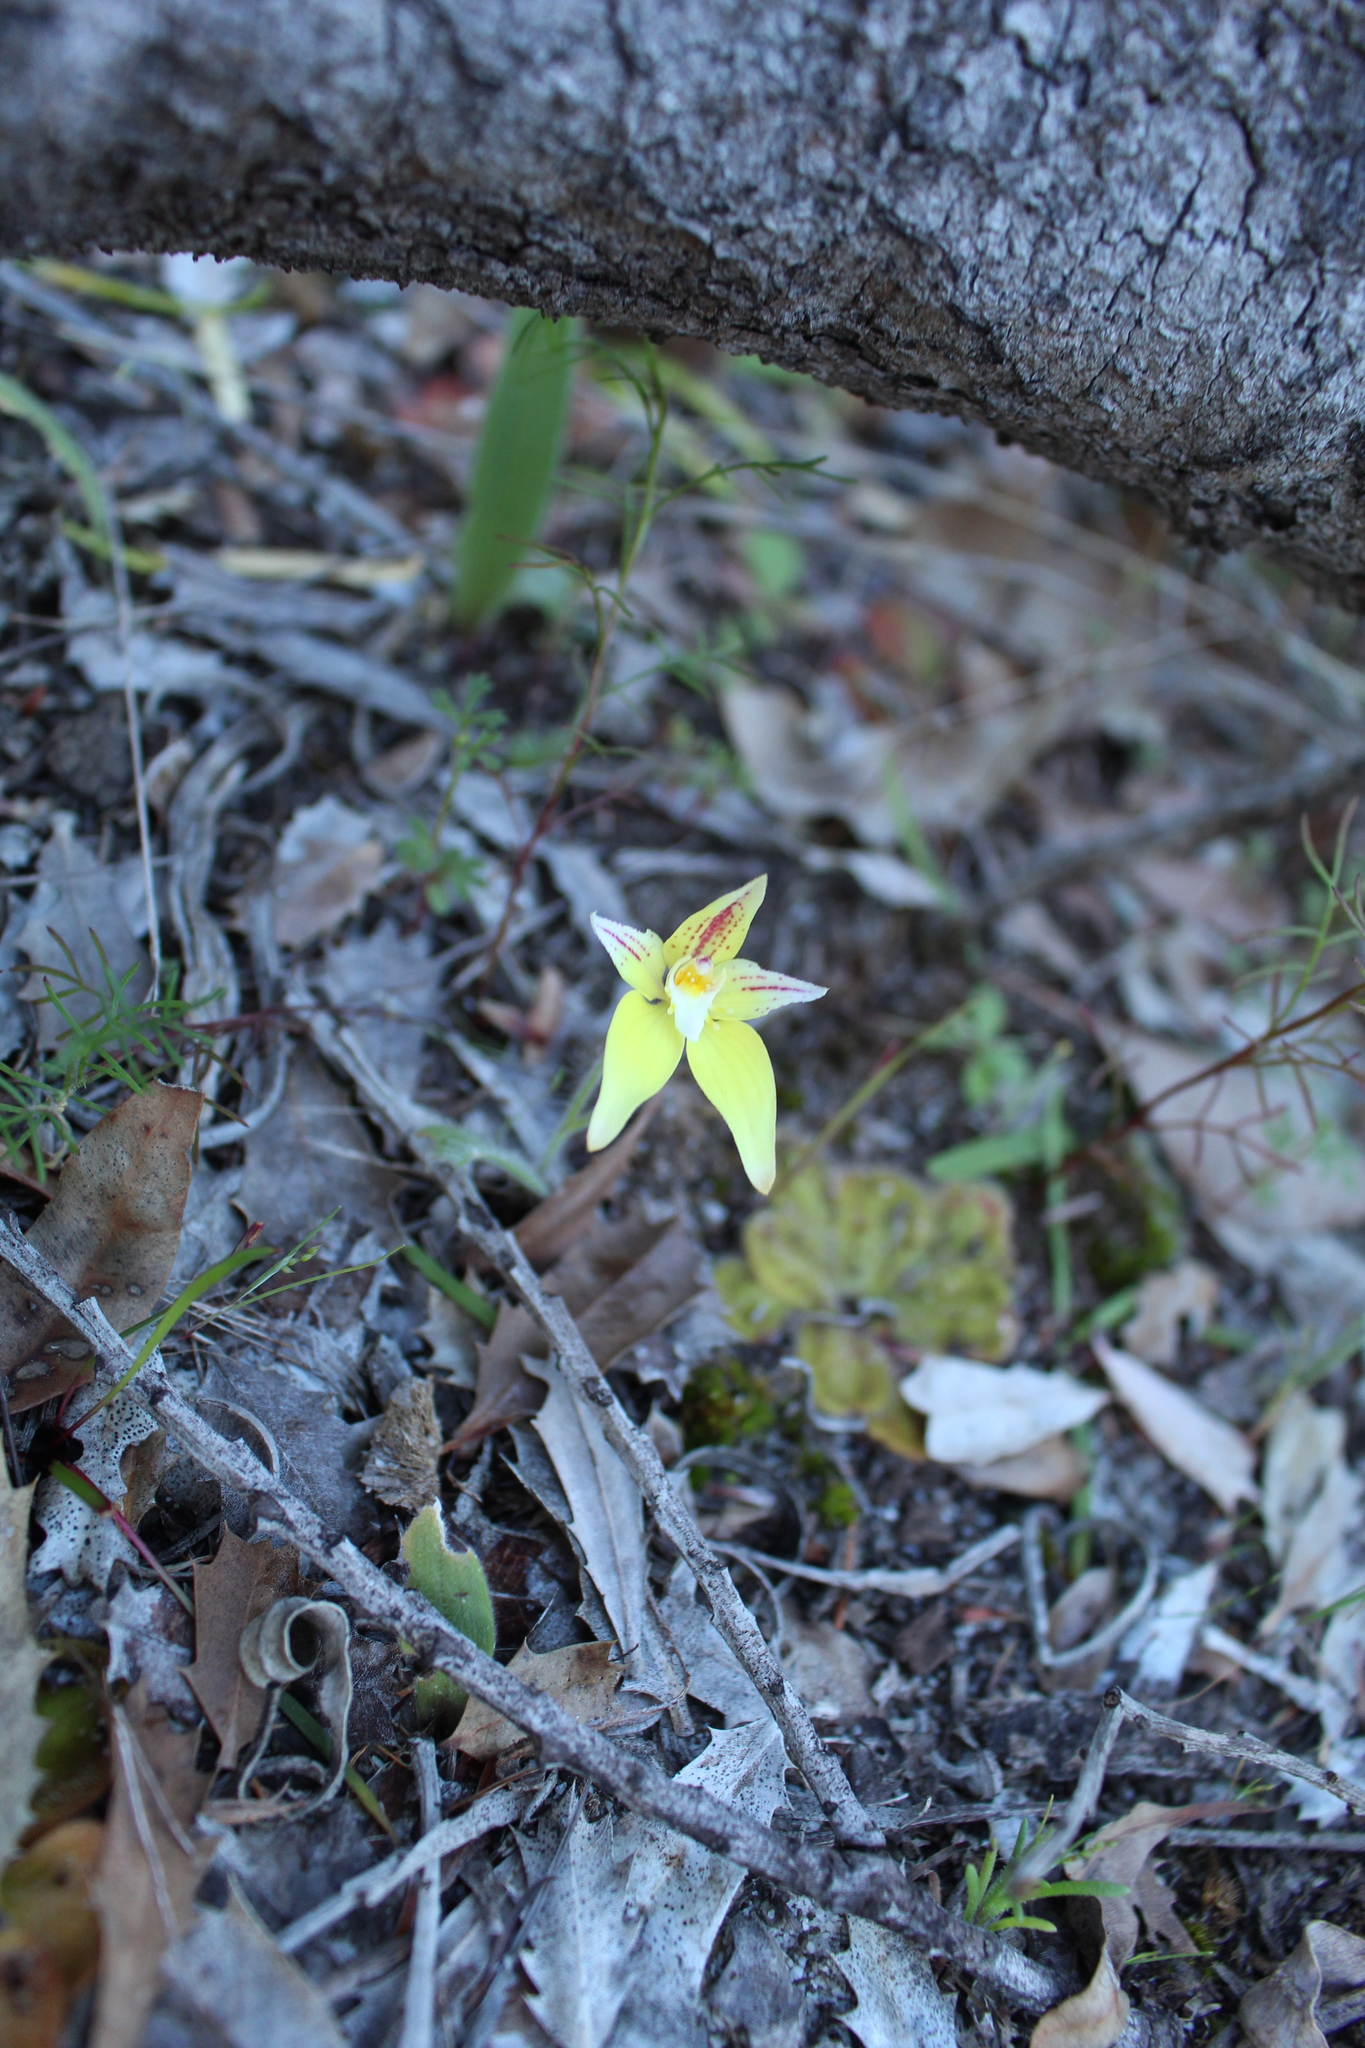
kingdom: Plantae
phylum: Tracheophyta
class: Liliopsida
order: Asparagales
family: Orchidaceae
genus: Caladenia
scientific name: Caladenia flava
